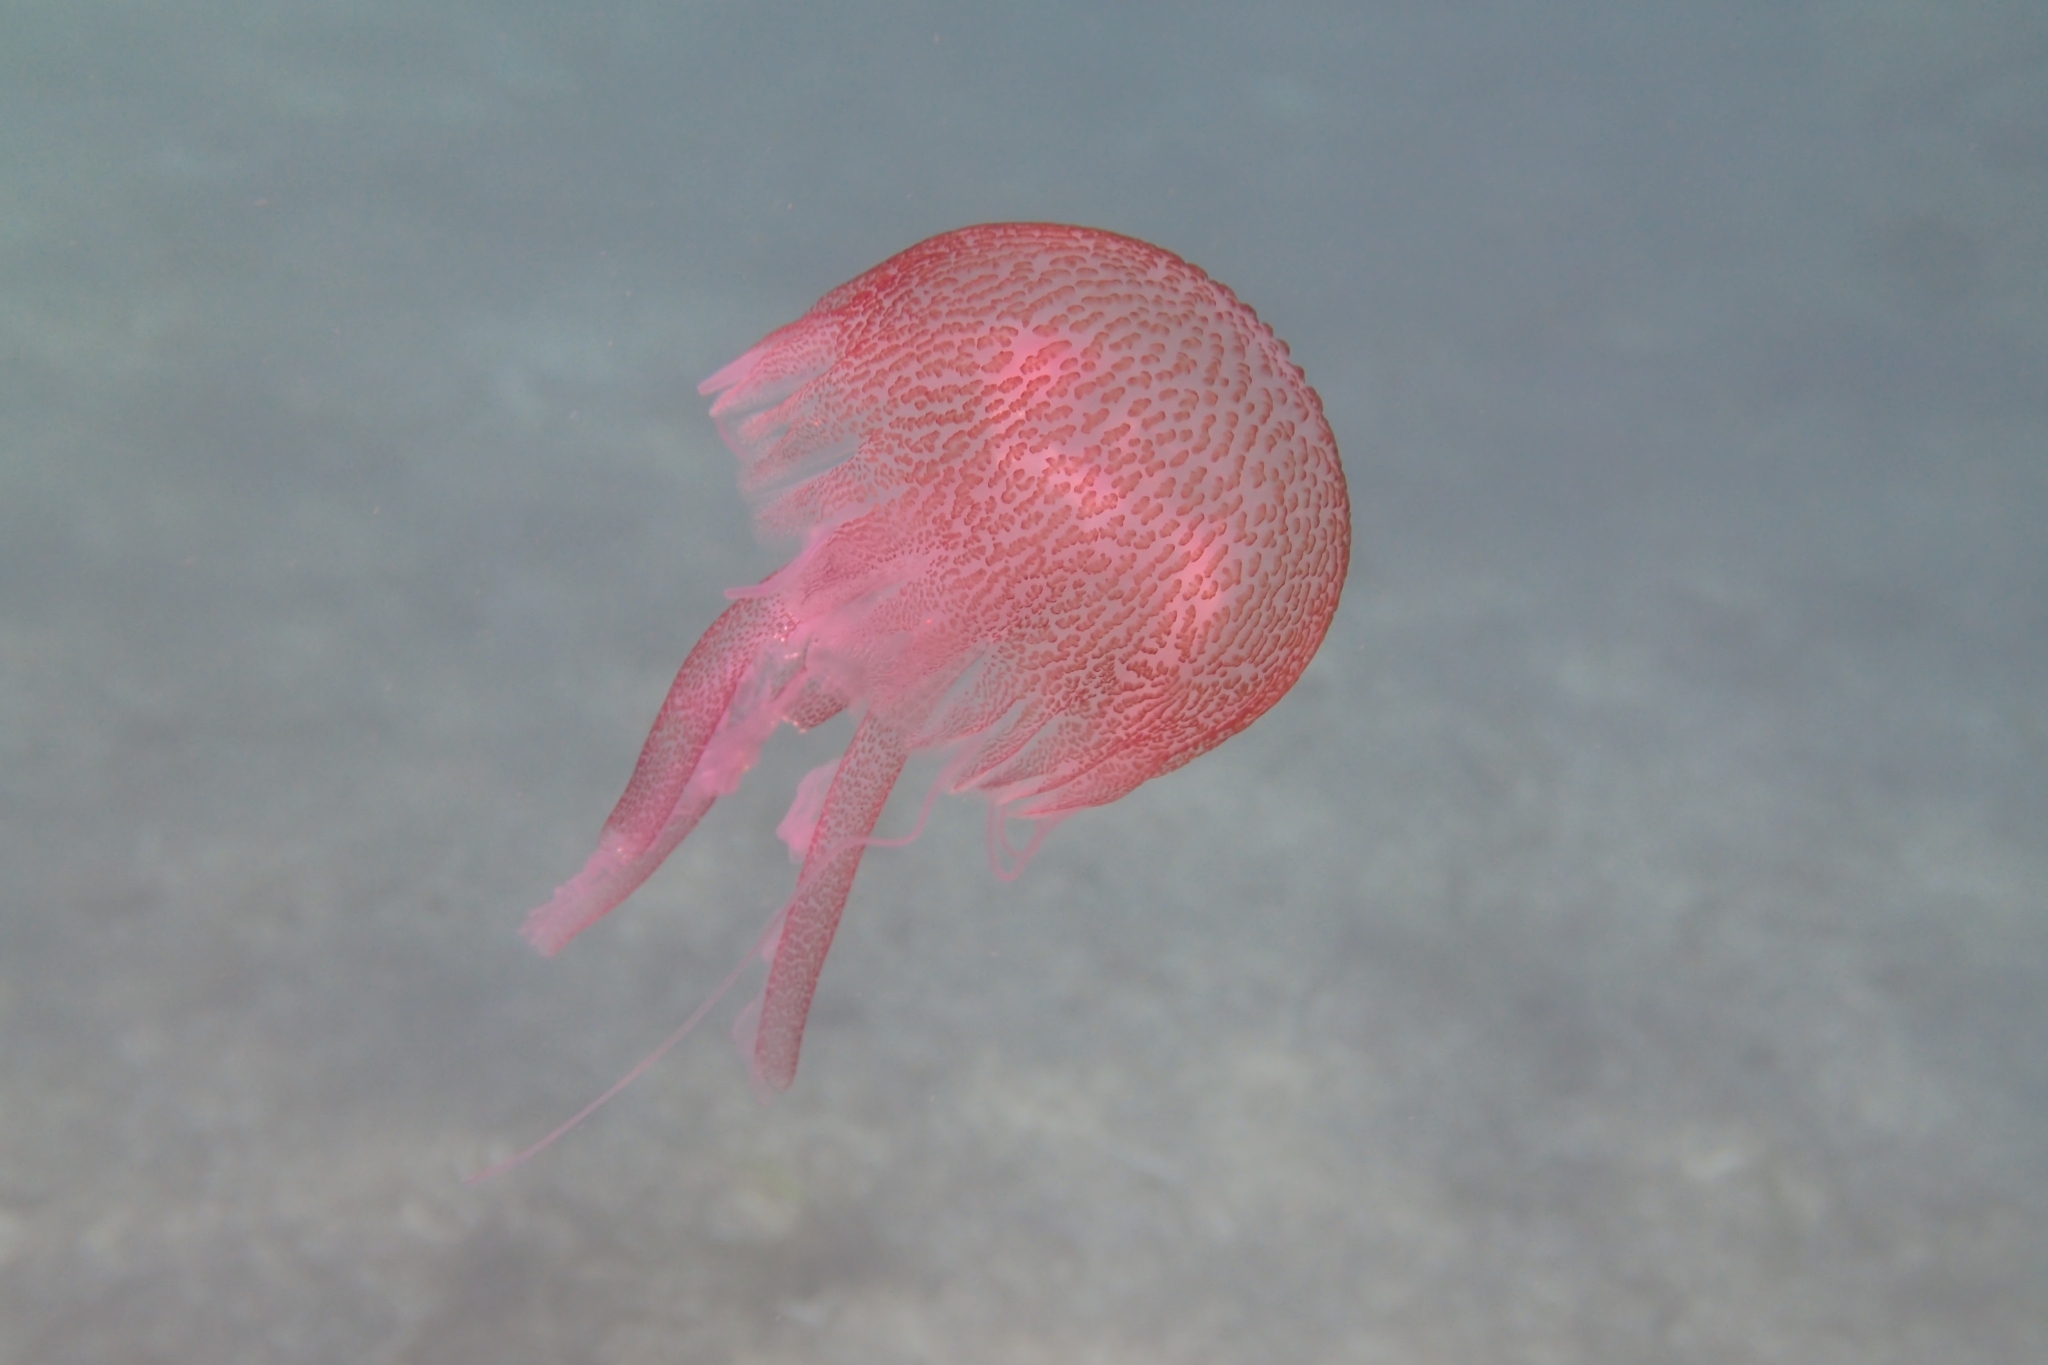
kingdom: Animalia
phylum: Cnidaria
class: Scyphozoa
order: Semaeostomeae
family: Pelagiidae
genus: Pelagia
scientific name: Pelagia noctiluca
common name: Mauve stinger
